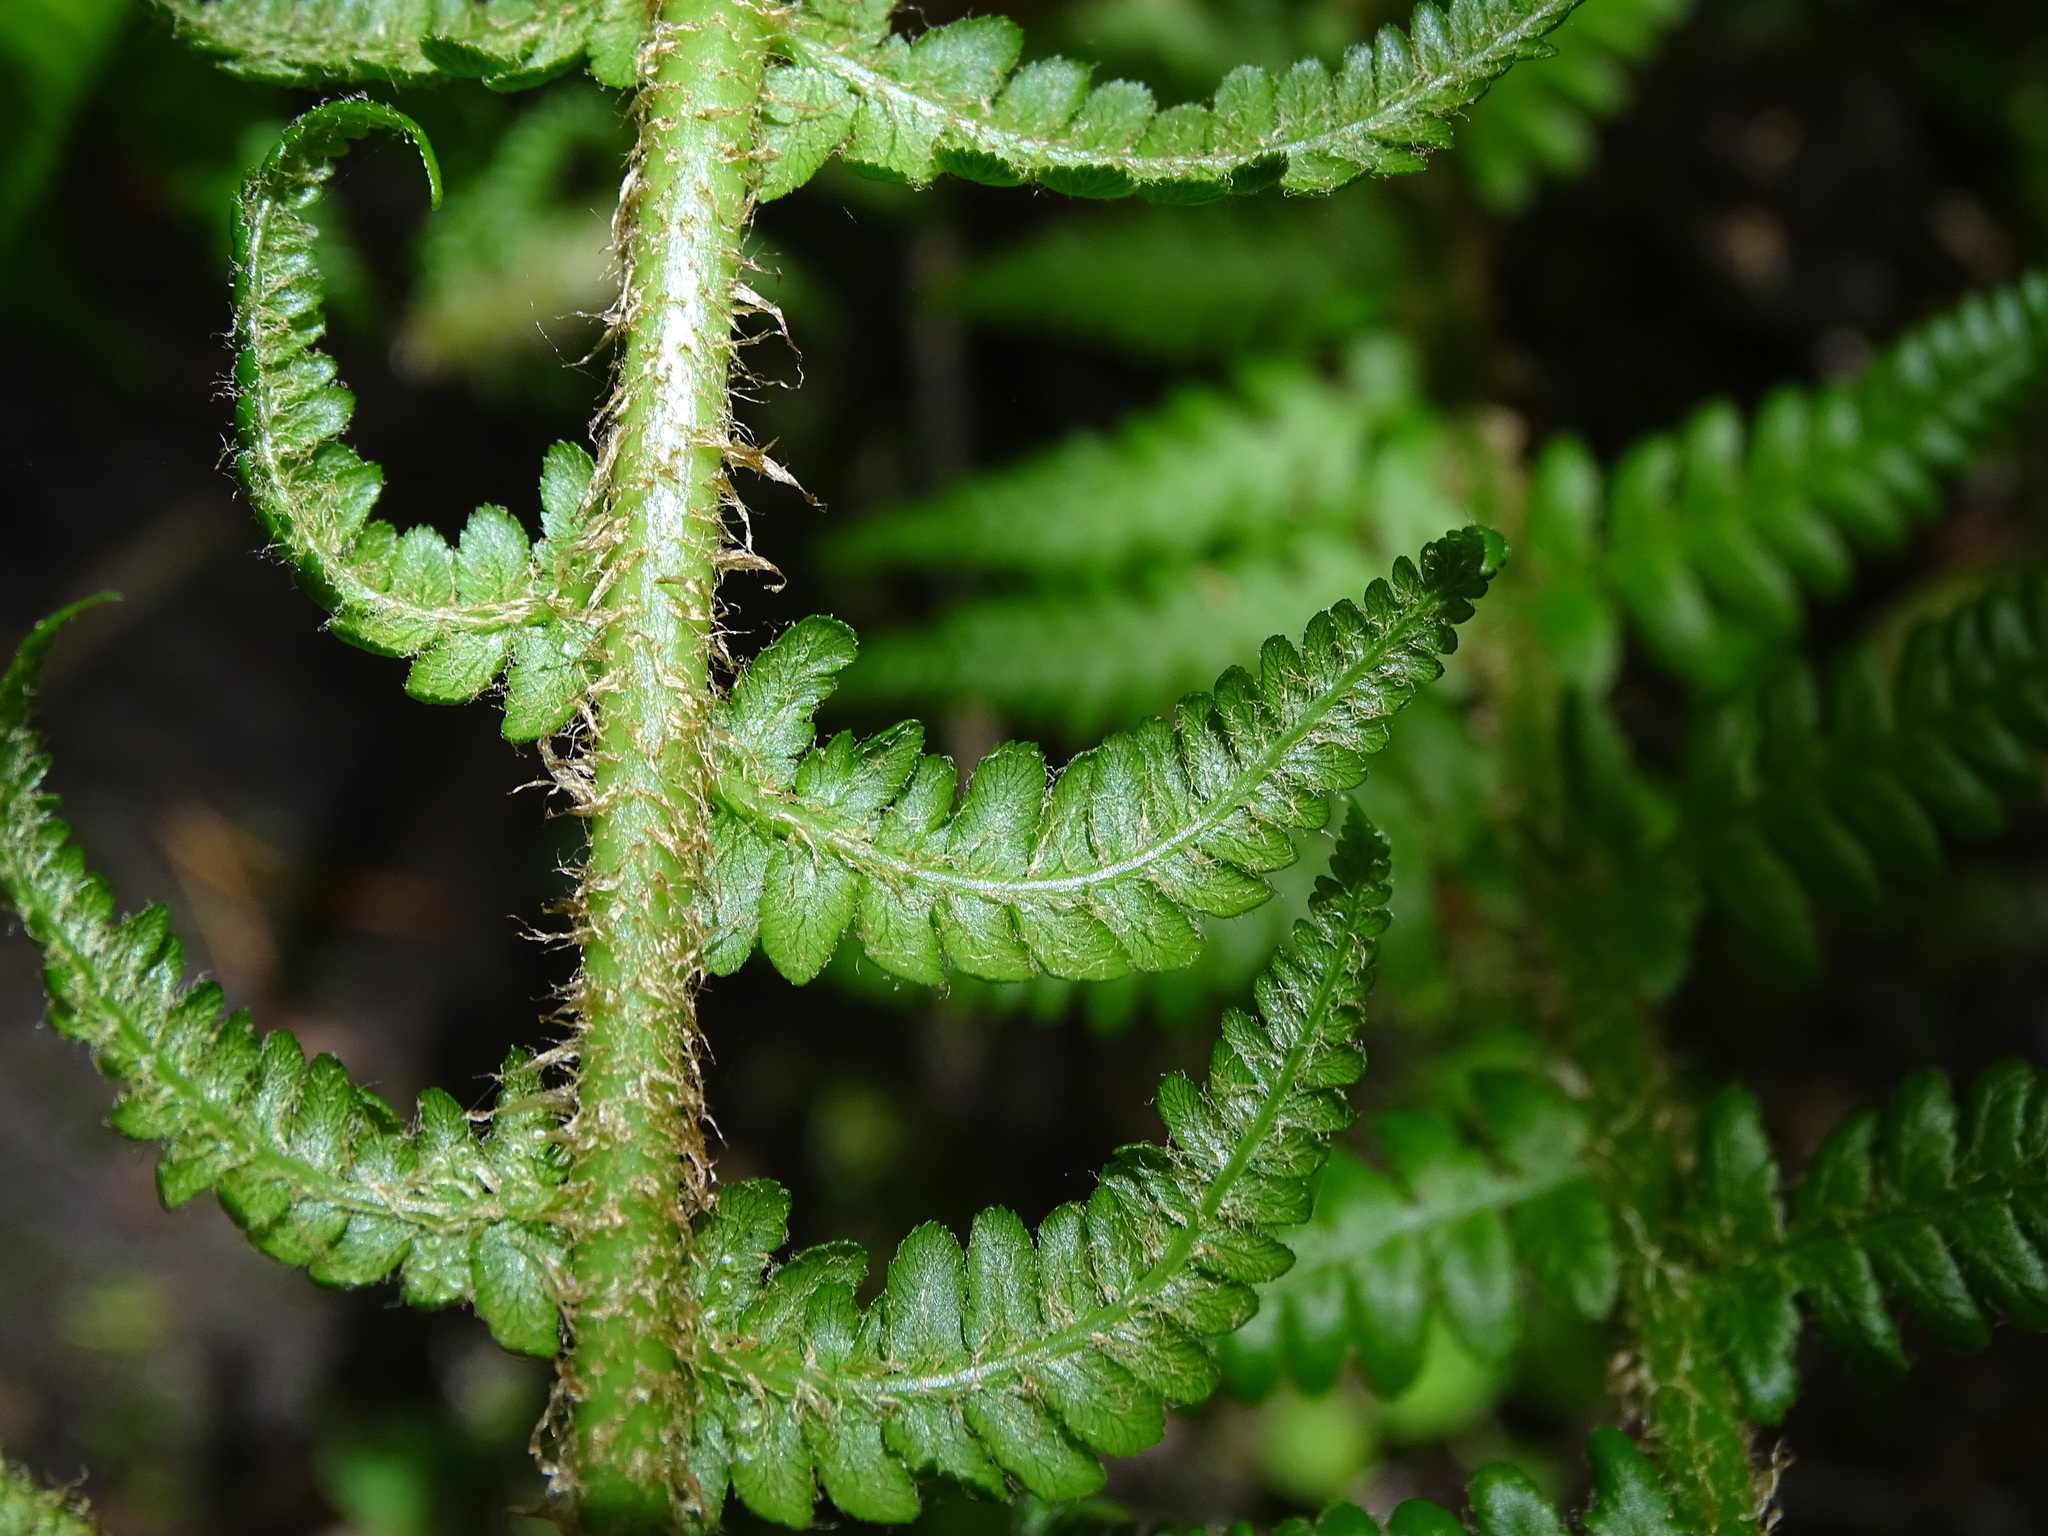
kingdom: Plantae
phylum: Tracheophyta
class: Polypodiopsida
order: Polypodiales
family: Dryopteridaceae
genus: Dryopteris
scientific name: Dryopteris filix-mas
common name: Male fern
